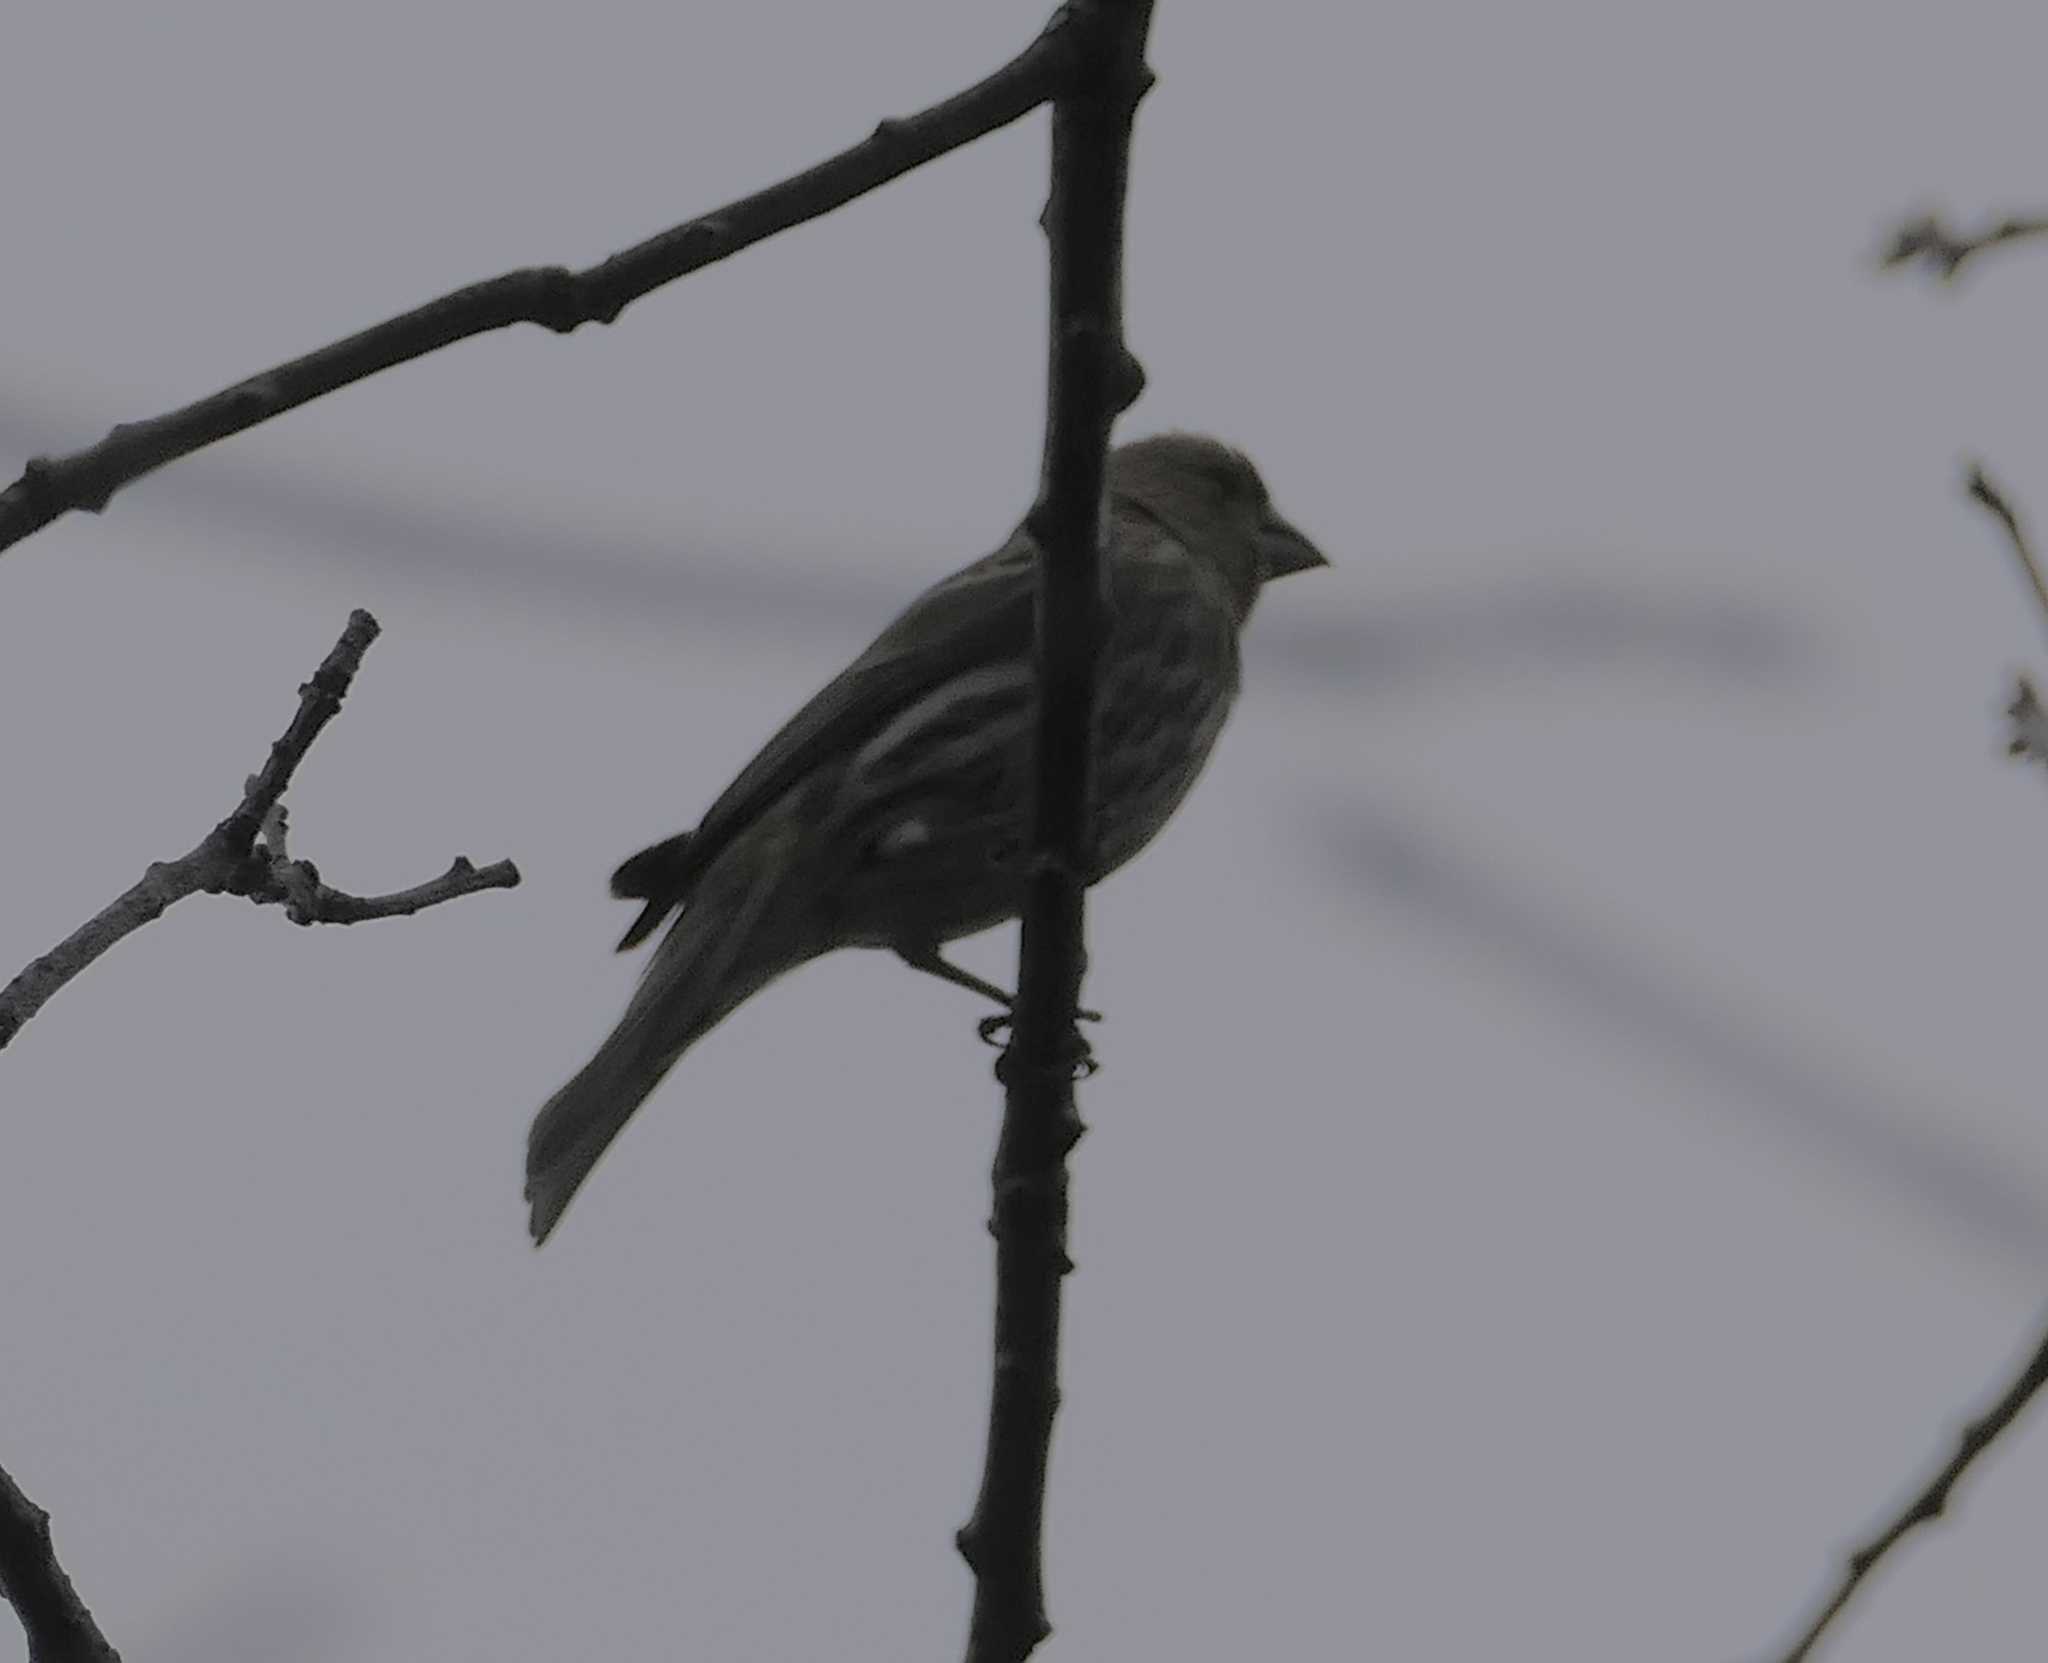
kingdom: Animalia
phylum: Chordata
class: Aves
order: Passeriformes
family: Fringillidae
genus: Haemorhous
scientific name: Haemorhous mexicanus
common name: House finch
